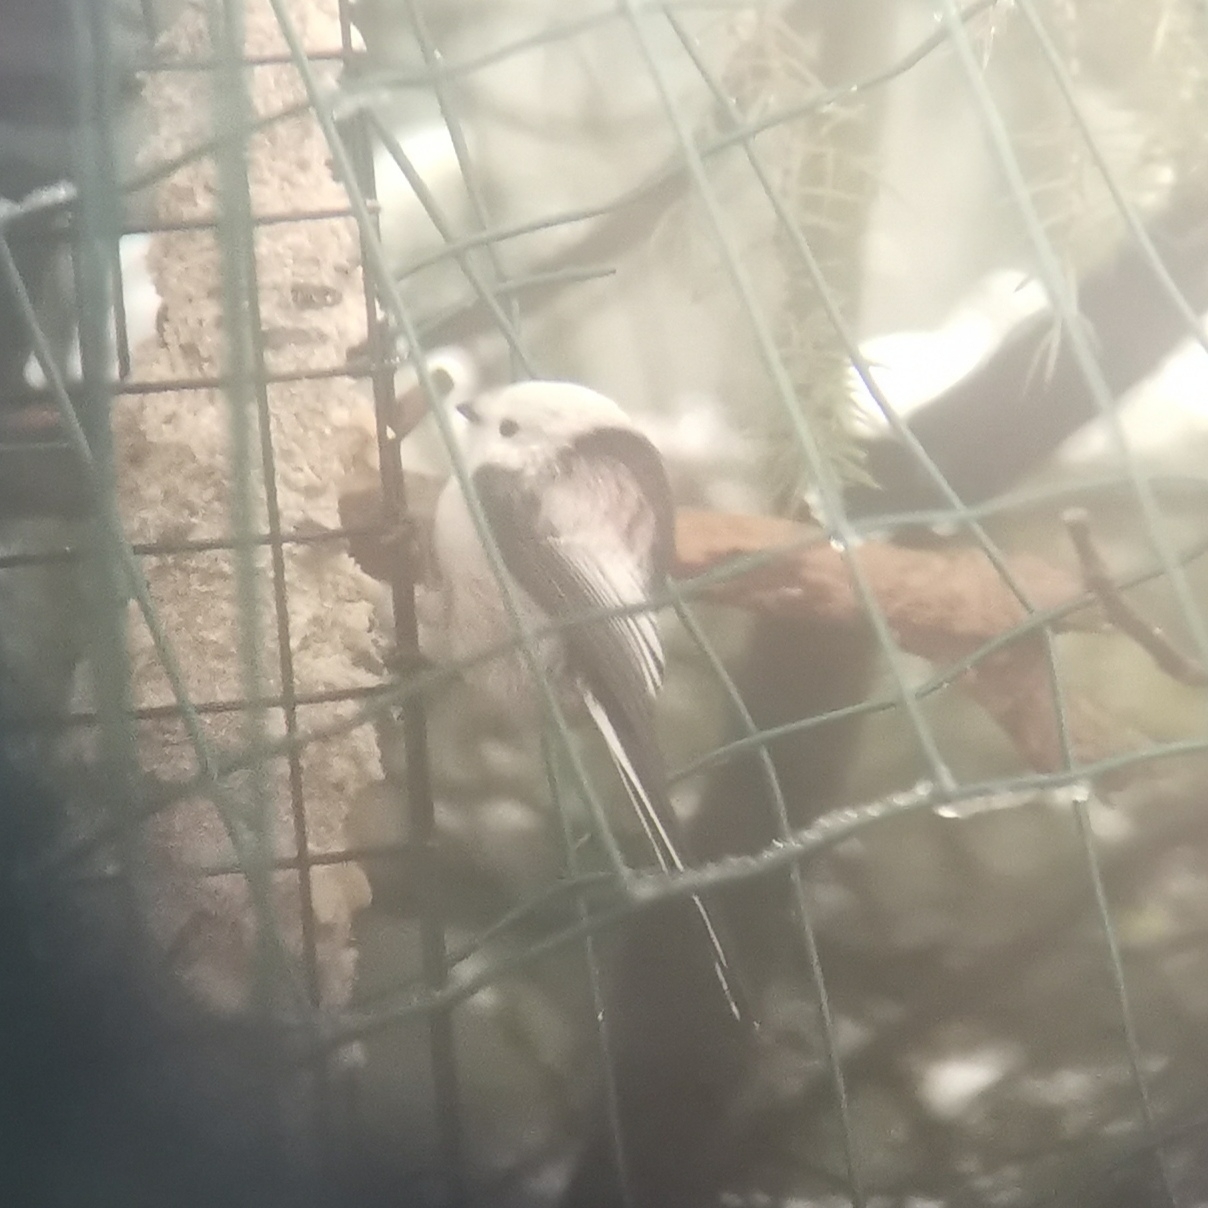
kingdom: Animalia
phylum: Chordata
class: Aves
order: Passeriformes
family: Aegithalidae
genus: Aegithalos
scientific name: Aegithalos caudatus
